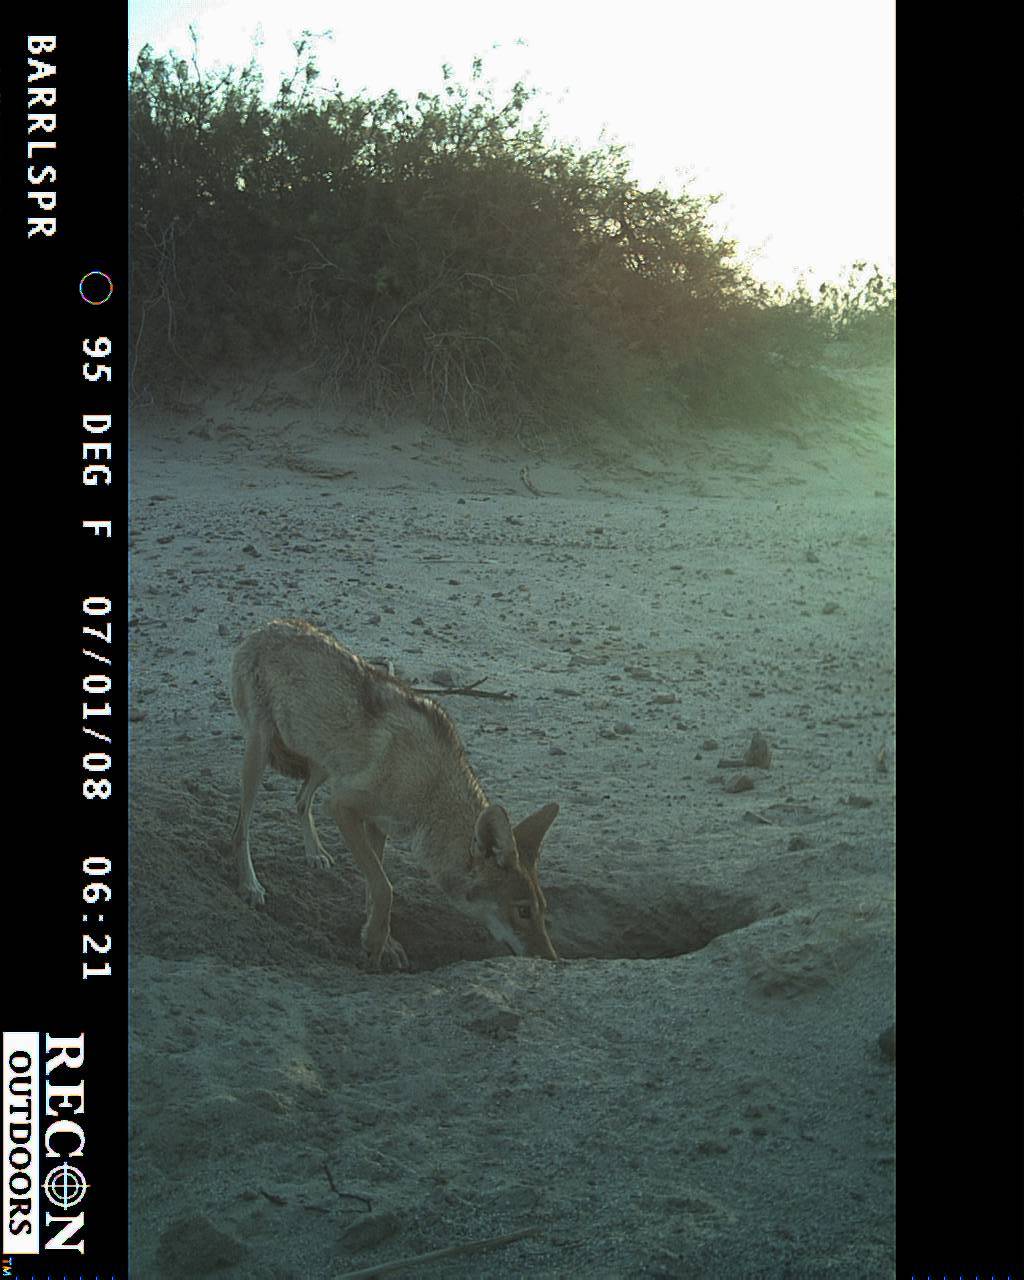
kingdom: Animalia
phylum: Chordata
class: Mammalia
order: Carnivora
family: Canidae
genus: Canis
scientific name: Canis latrans
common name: Coyote
